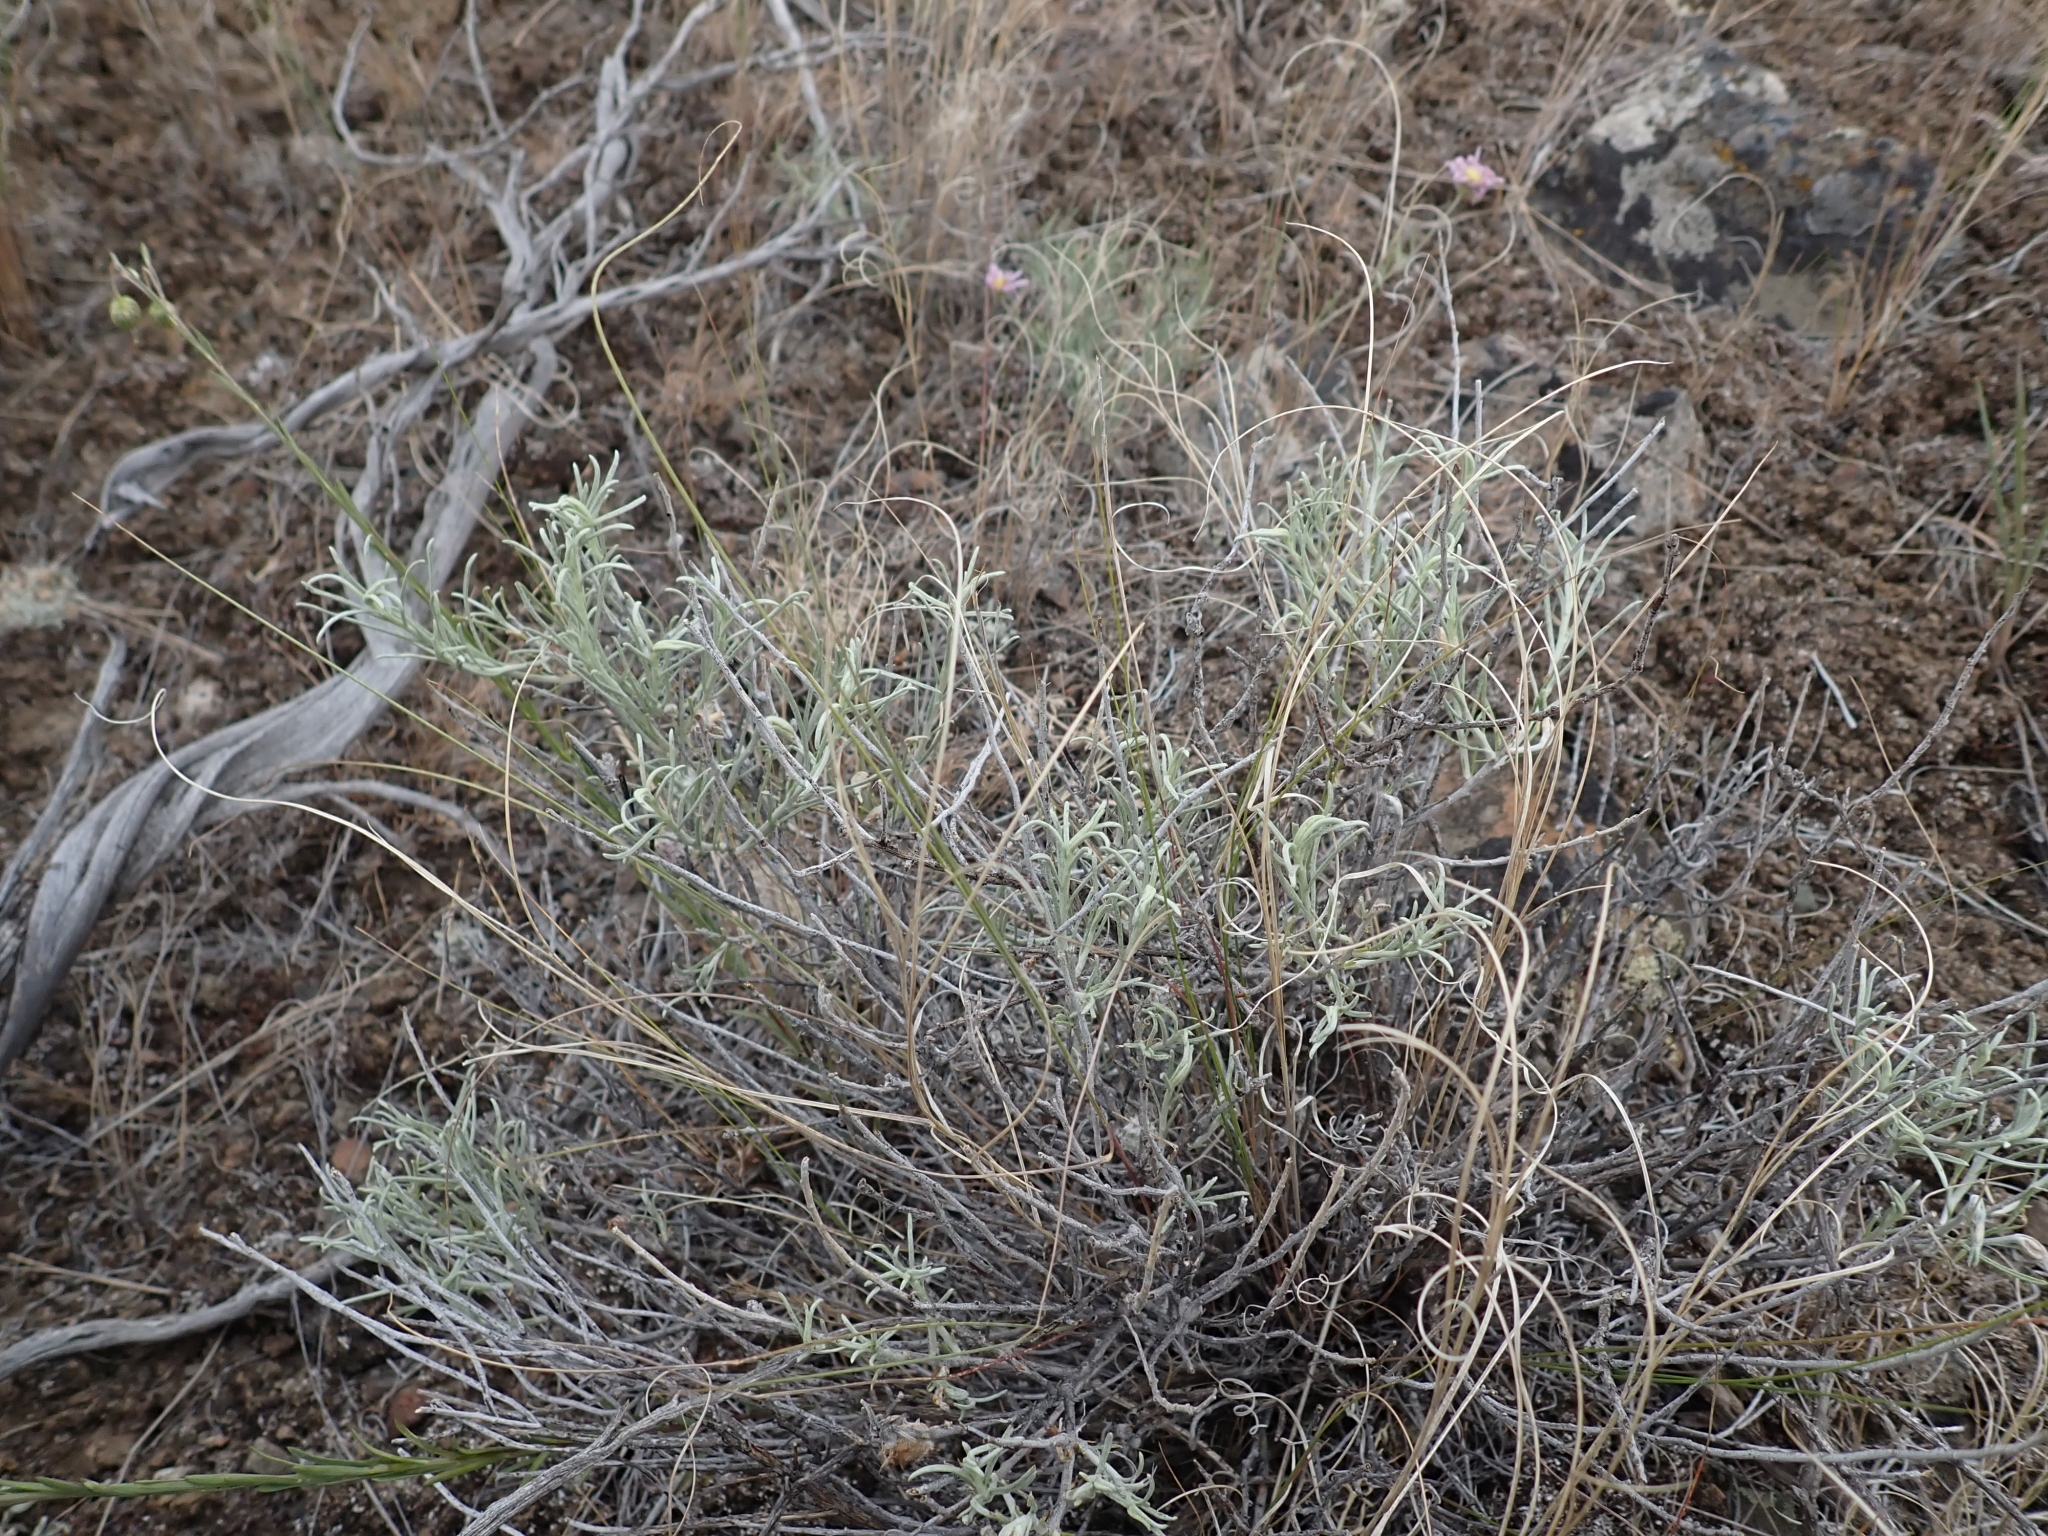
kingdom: Plantae
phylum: Tracheophyta
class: Magnoliopsida
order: Asterales
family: Asteraceae
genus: Ericameria
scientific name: Ericameria nauseosa
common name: Rubber rabbitbrush
